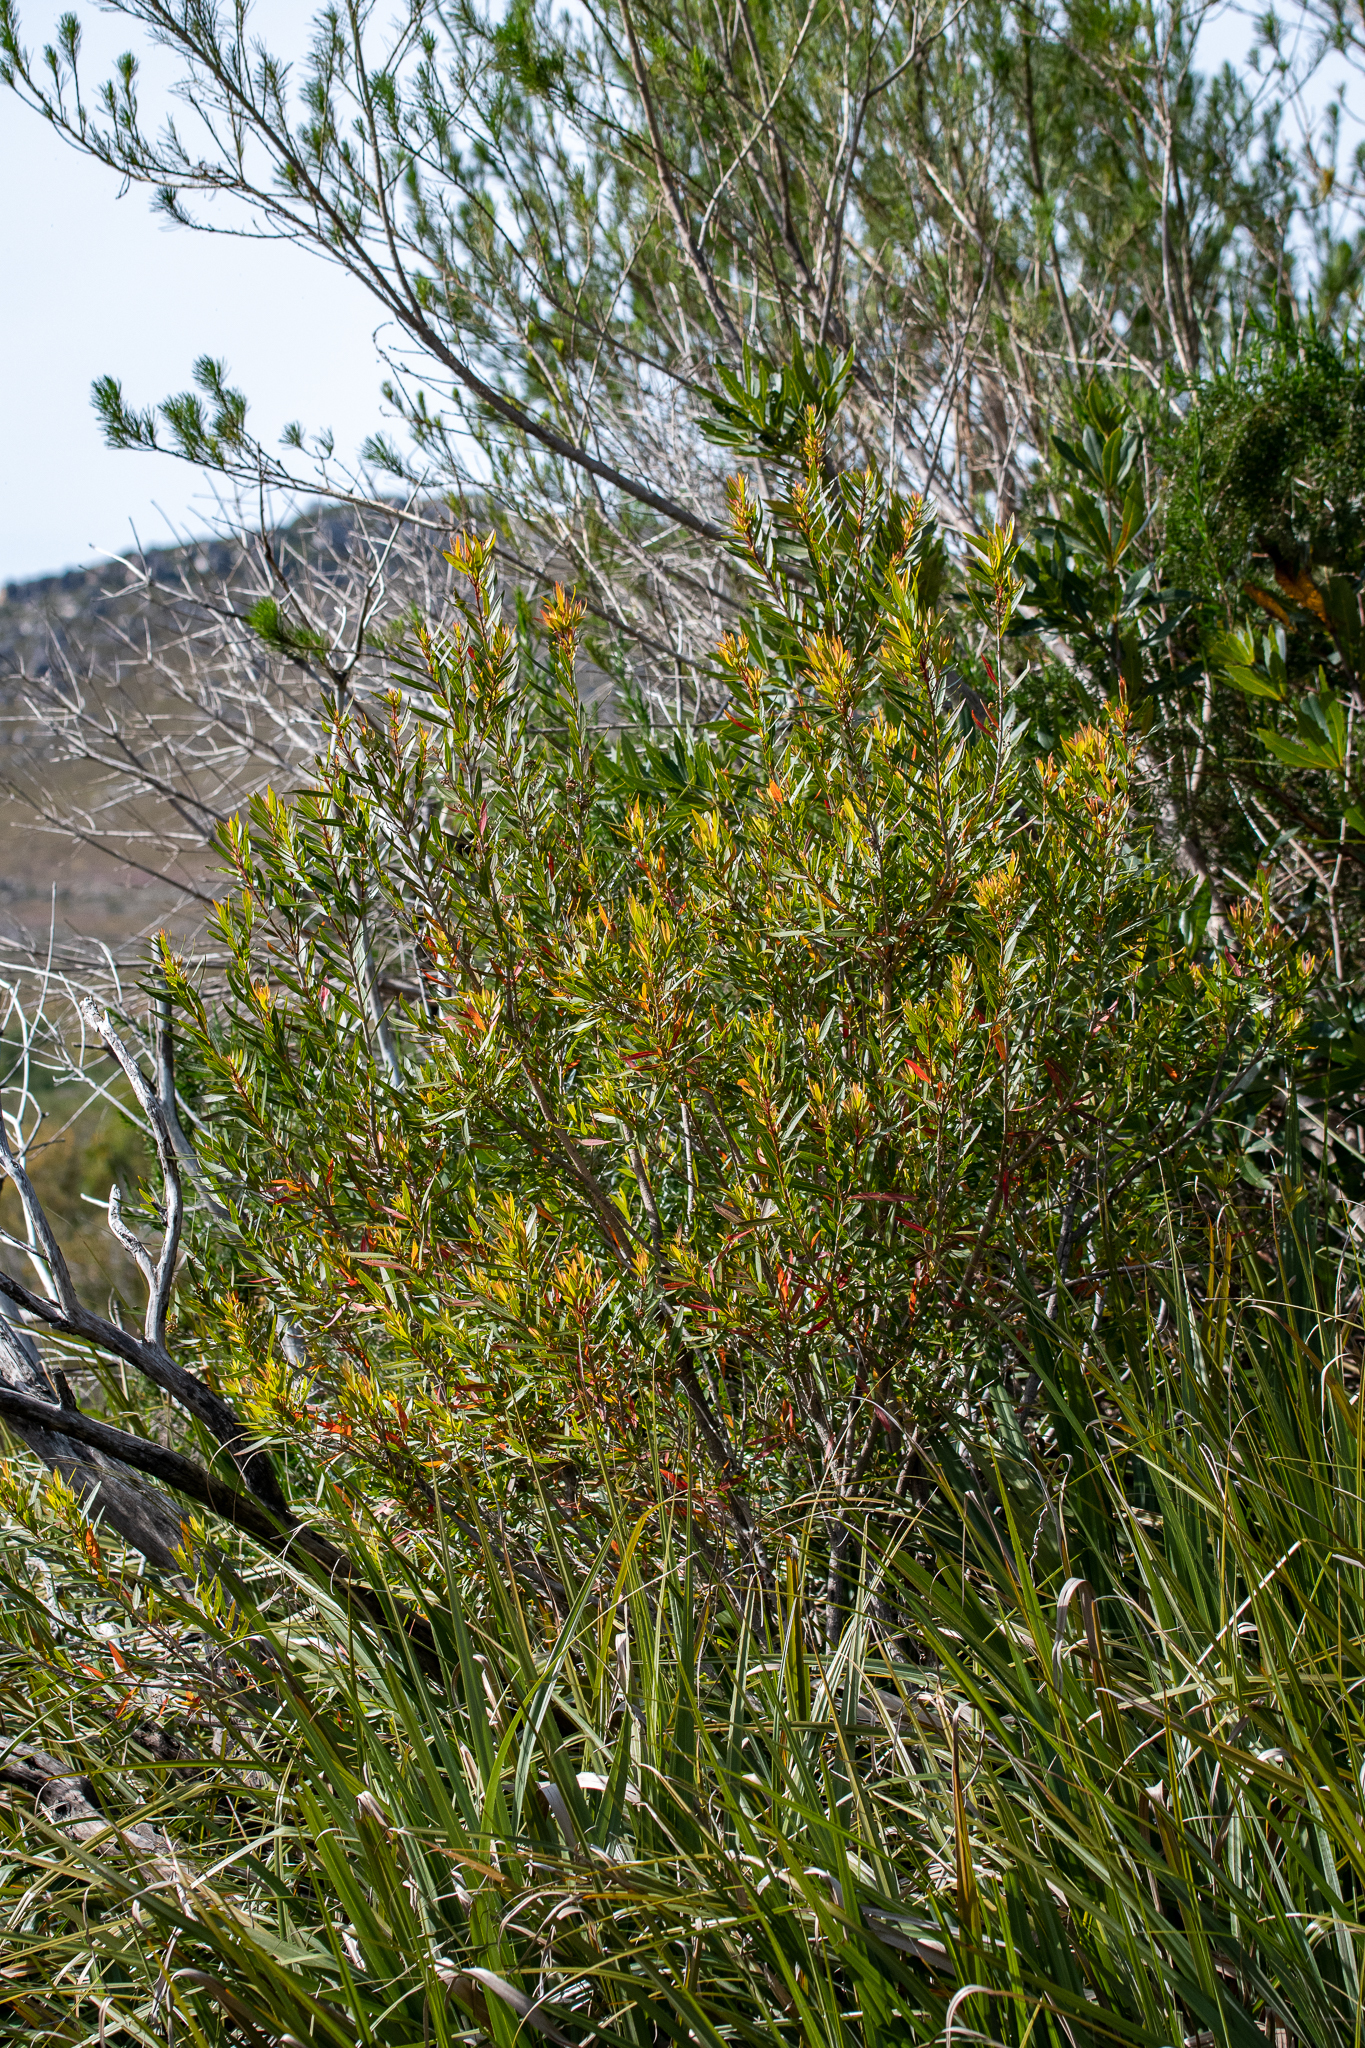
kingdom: Plantae
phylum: Tracheophyta
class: Magnoliopsida
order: Myrtales
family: Myrtaceae
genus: Callistemon
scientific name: Callistemon lanceolatus
